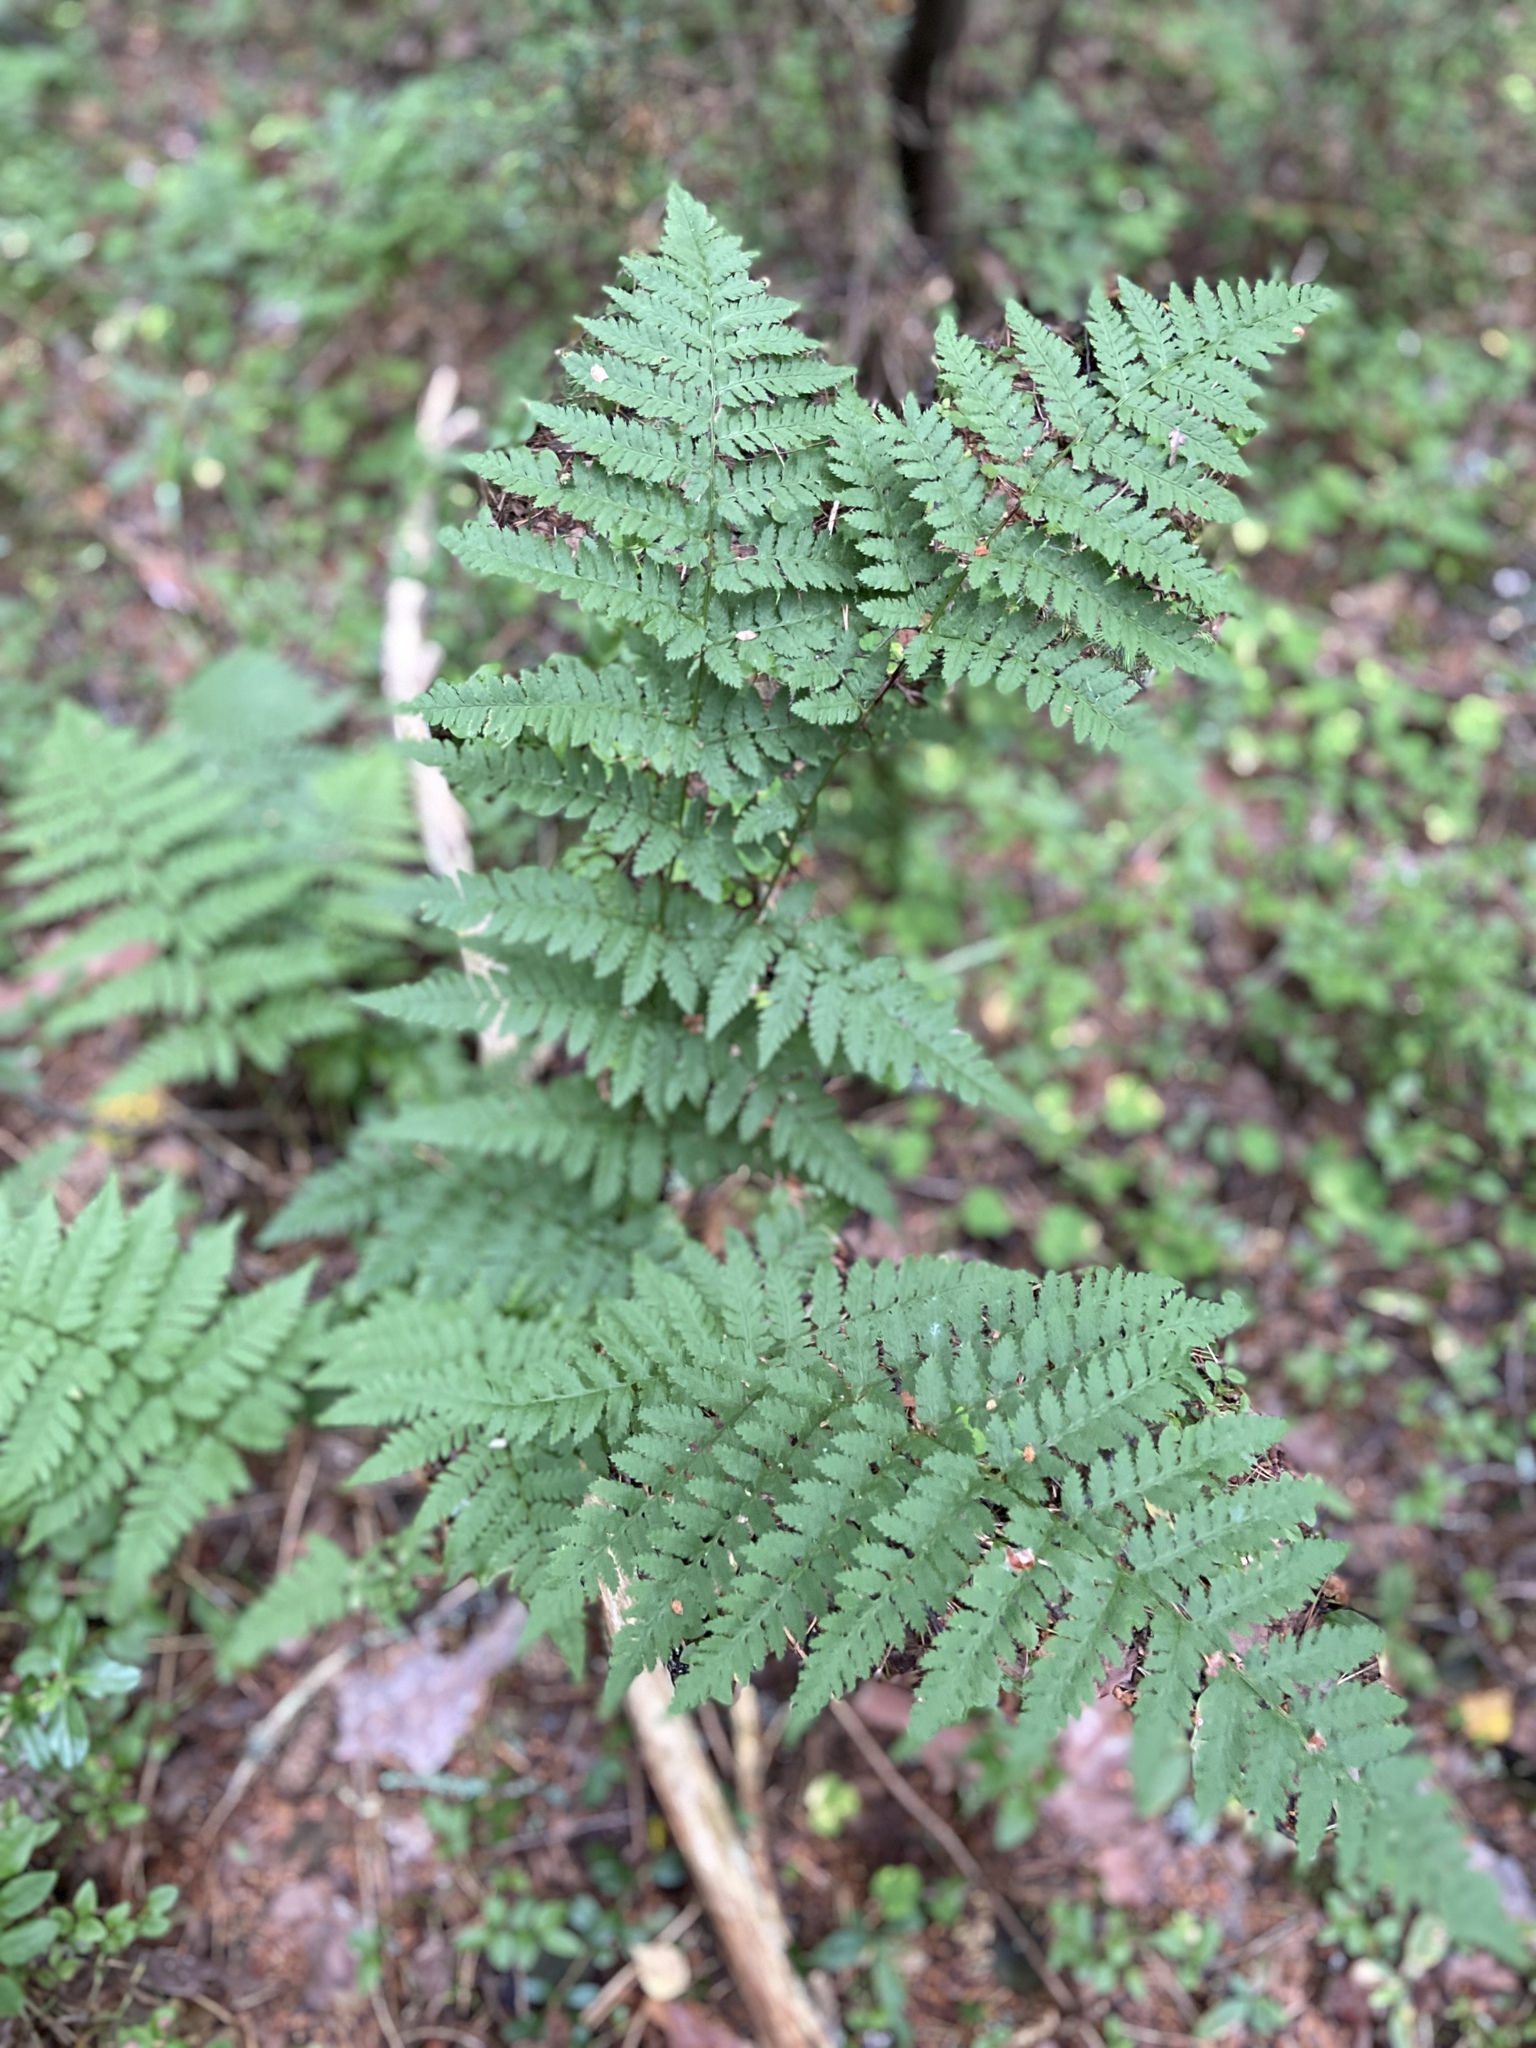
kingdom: Plantae
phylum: Tracheophyta
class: Polypodiopsida
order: Polypodiales
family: Dryopteridaceae
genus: Dryopteris
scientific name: Dryopteris carthusiana
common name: Narrow buckler-fern
